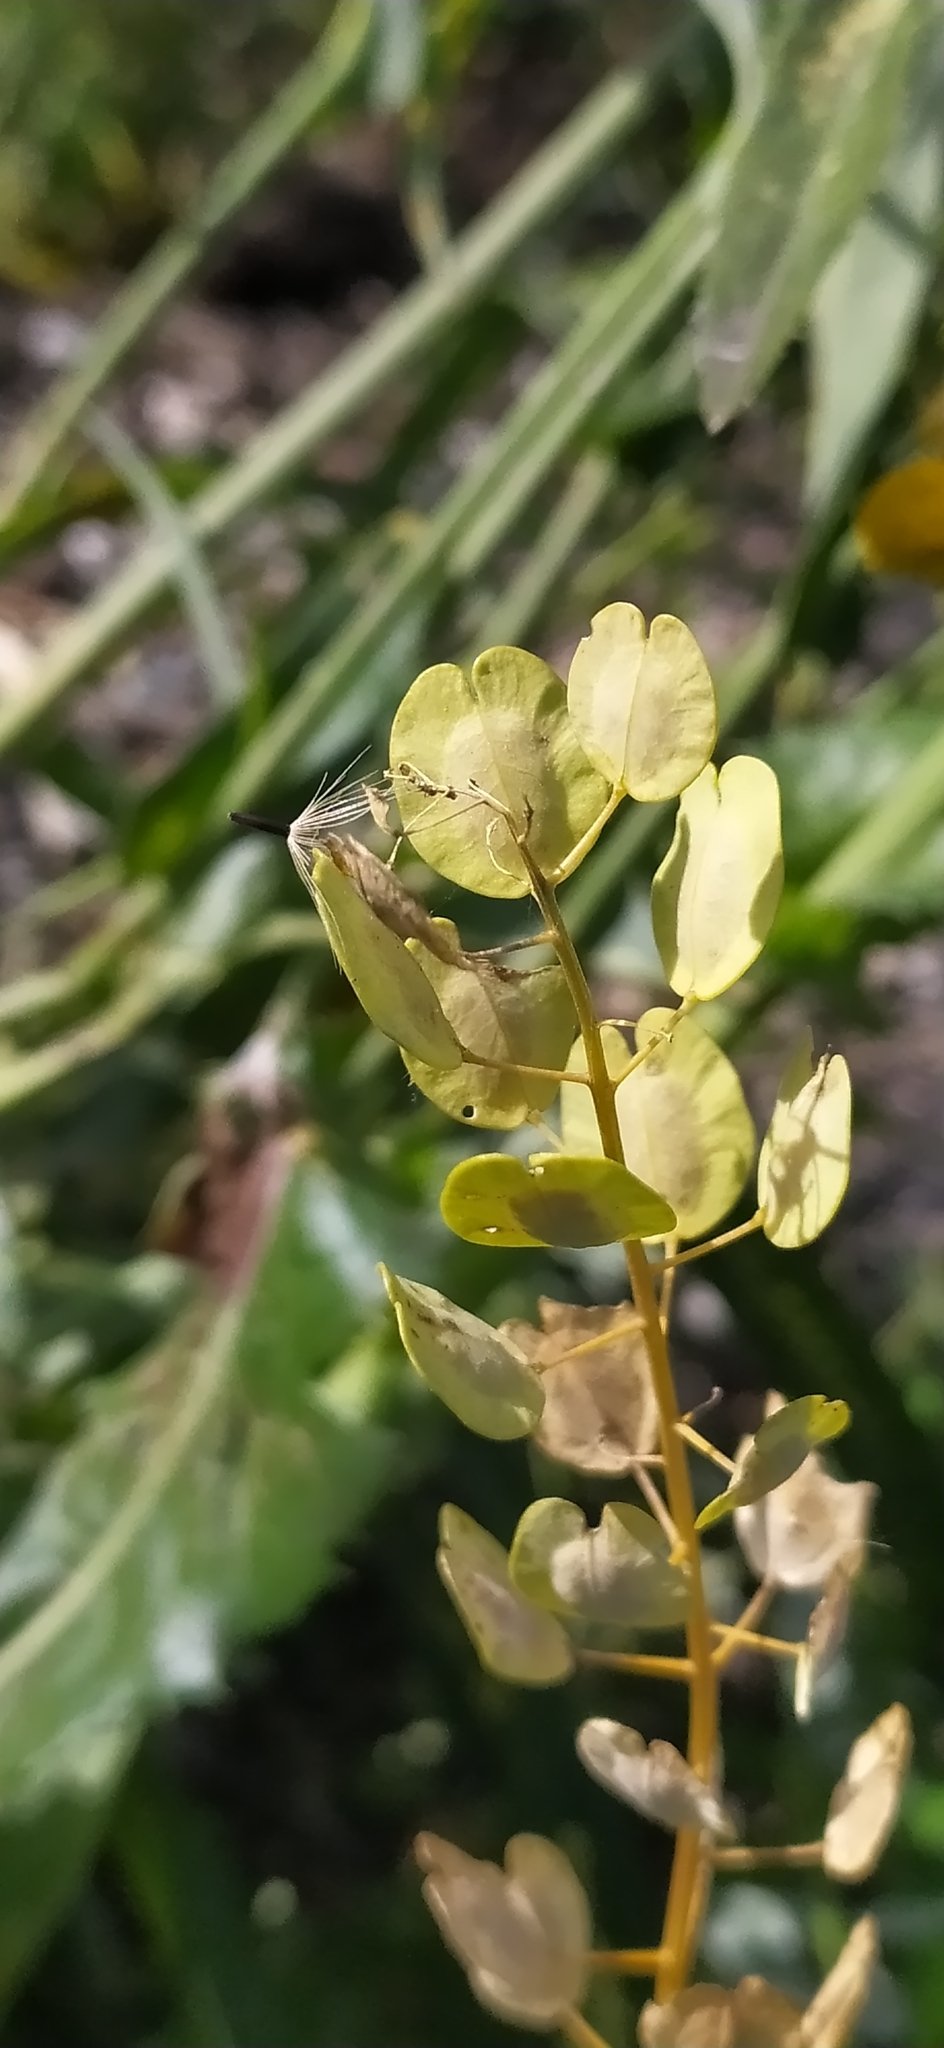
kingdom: Plantae
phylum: Tracheophyta
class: Magnoliopsida
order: Brassicales
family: Brassicaceae
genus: Thlaspi
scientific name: Thlaspi arvense
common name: Field pennycress
